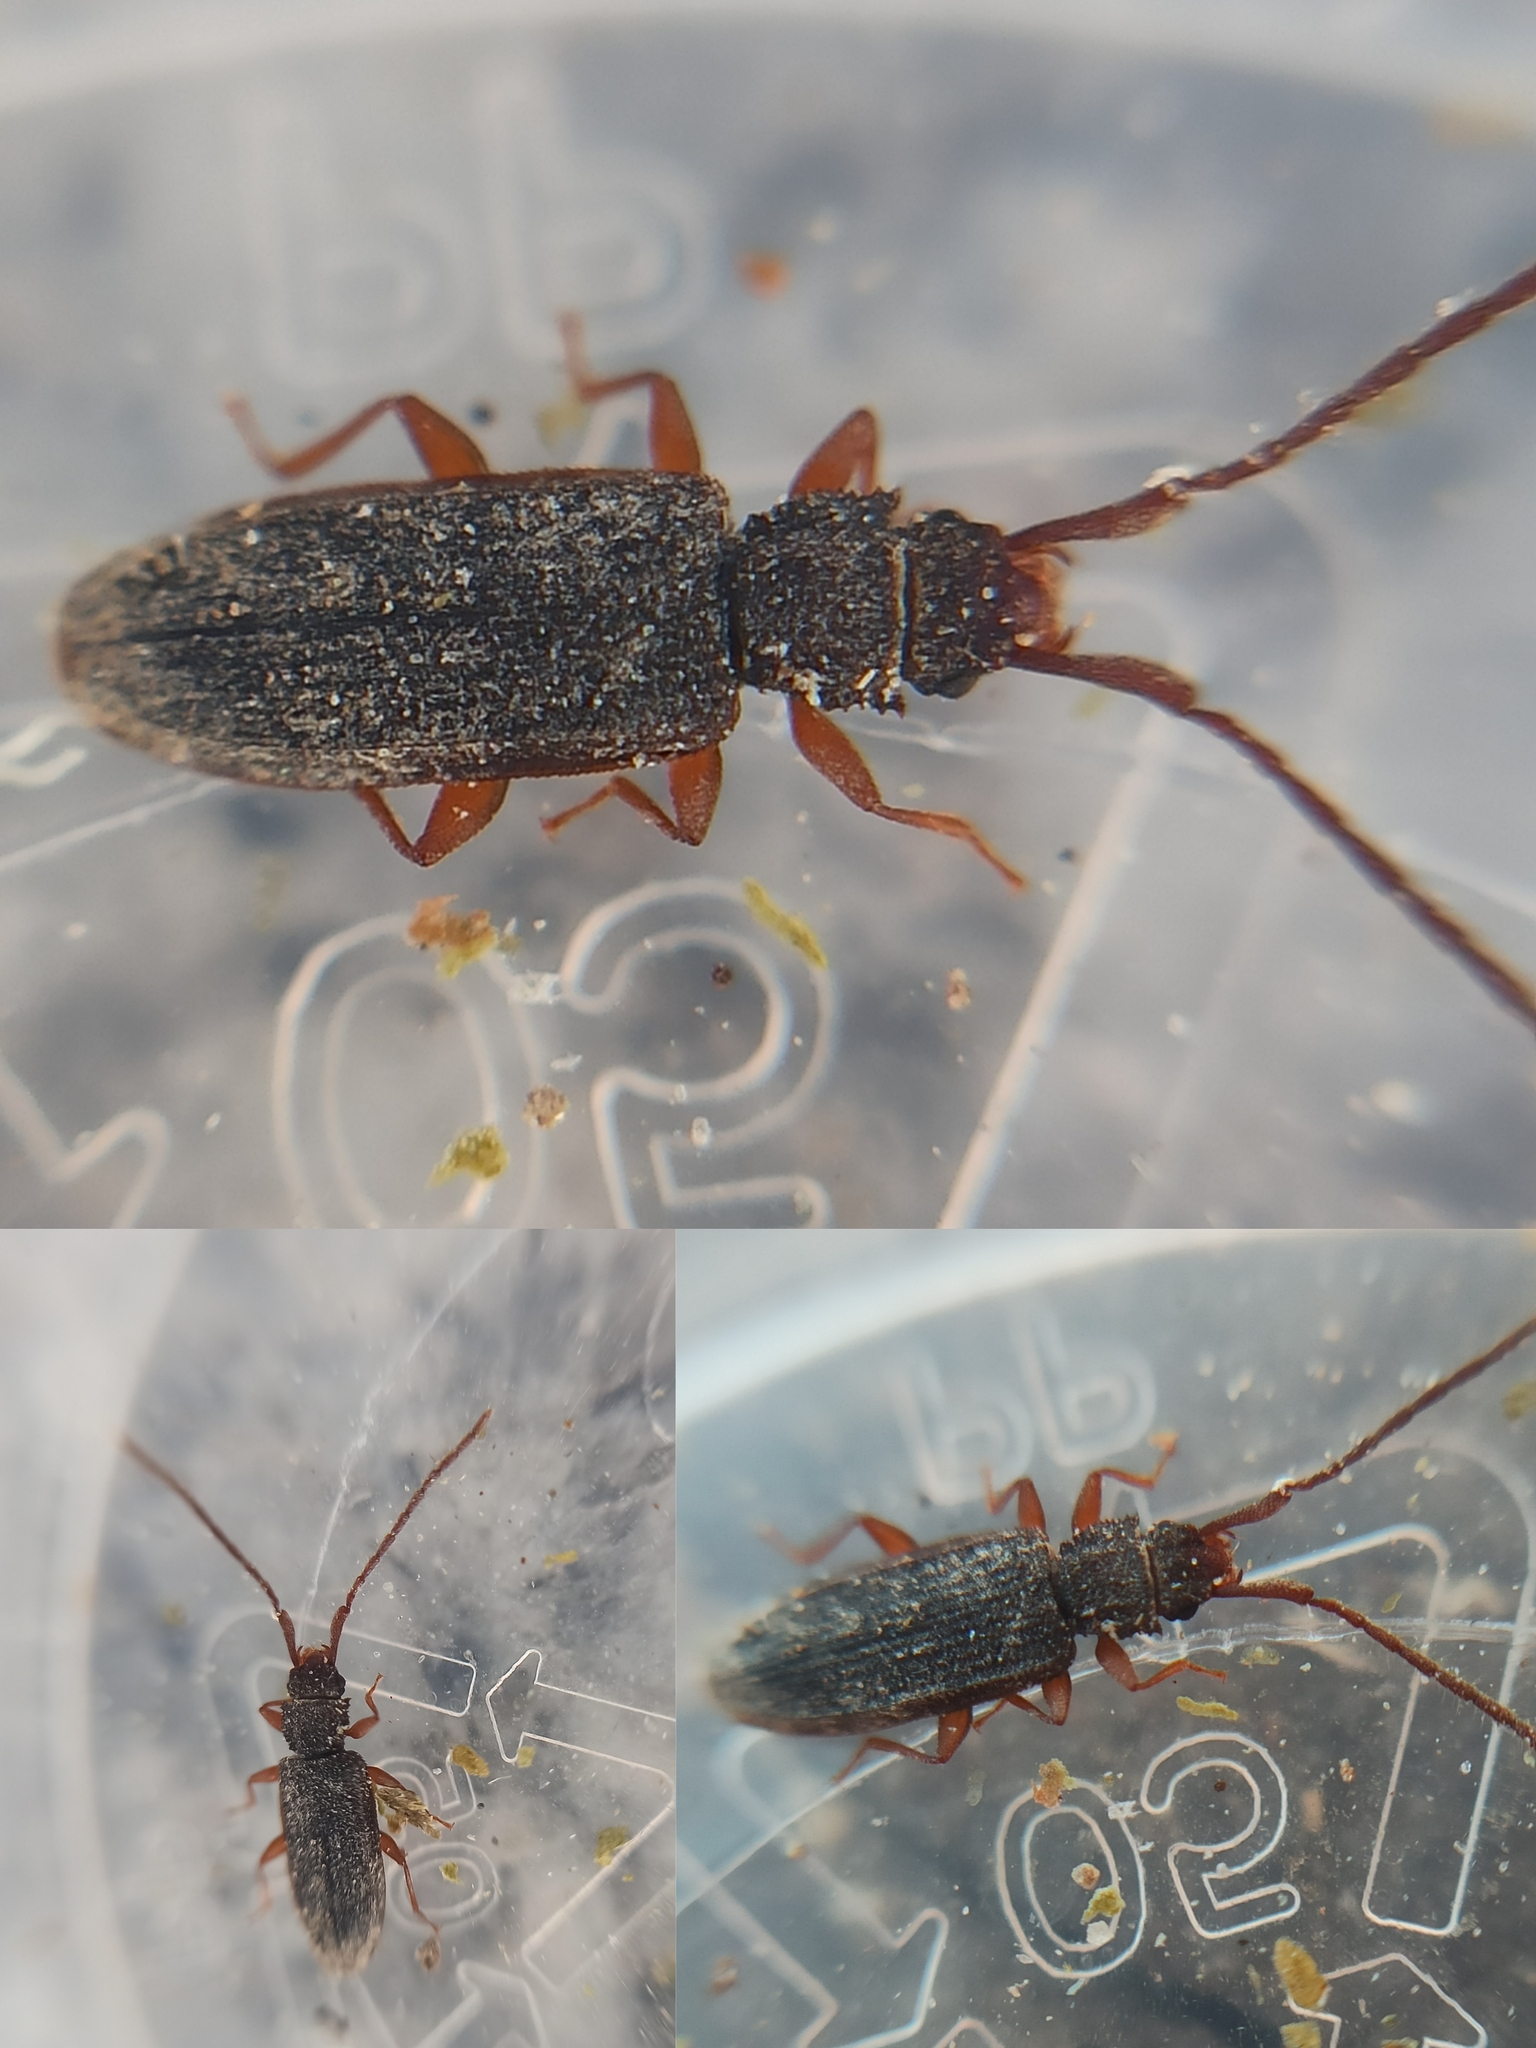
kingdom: Animalia
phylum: Arthropoda
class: Insecta
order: Coleoptera
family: Silvanidae
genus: Uleiota
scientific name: Uleiota planatus
